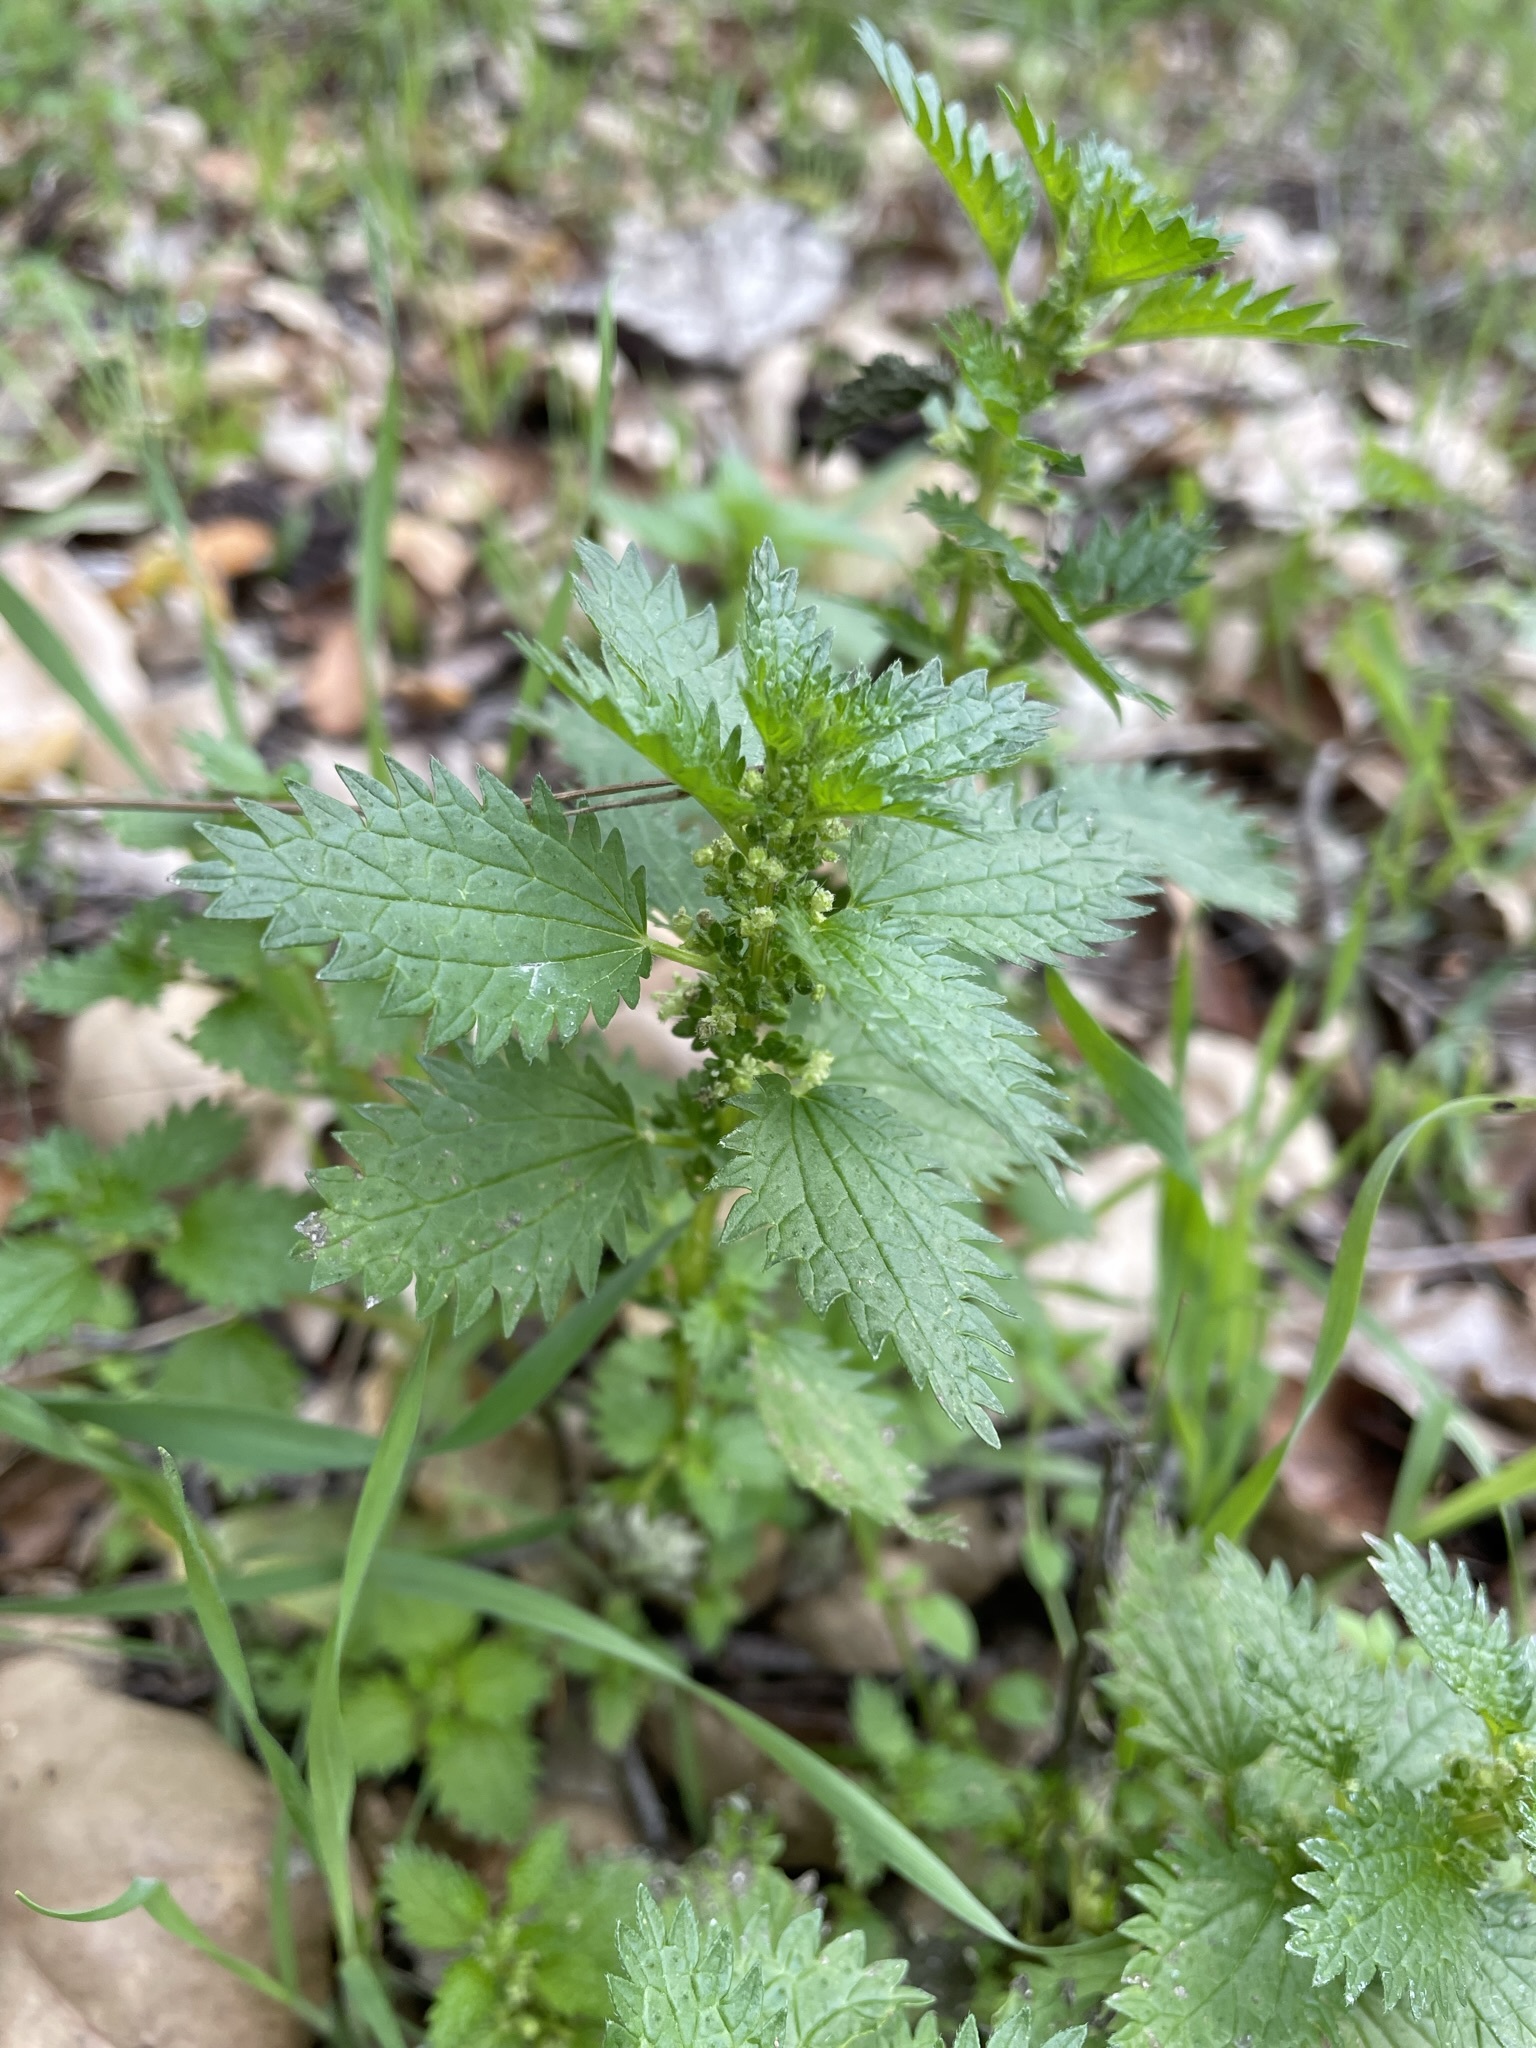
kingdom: Plantae
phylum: Tracheophyta
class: Magnoliopsida
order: Rosales
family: Urticaceae
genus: Urtica
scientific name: Urtica urens
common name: Dwarf nettle
